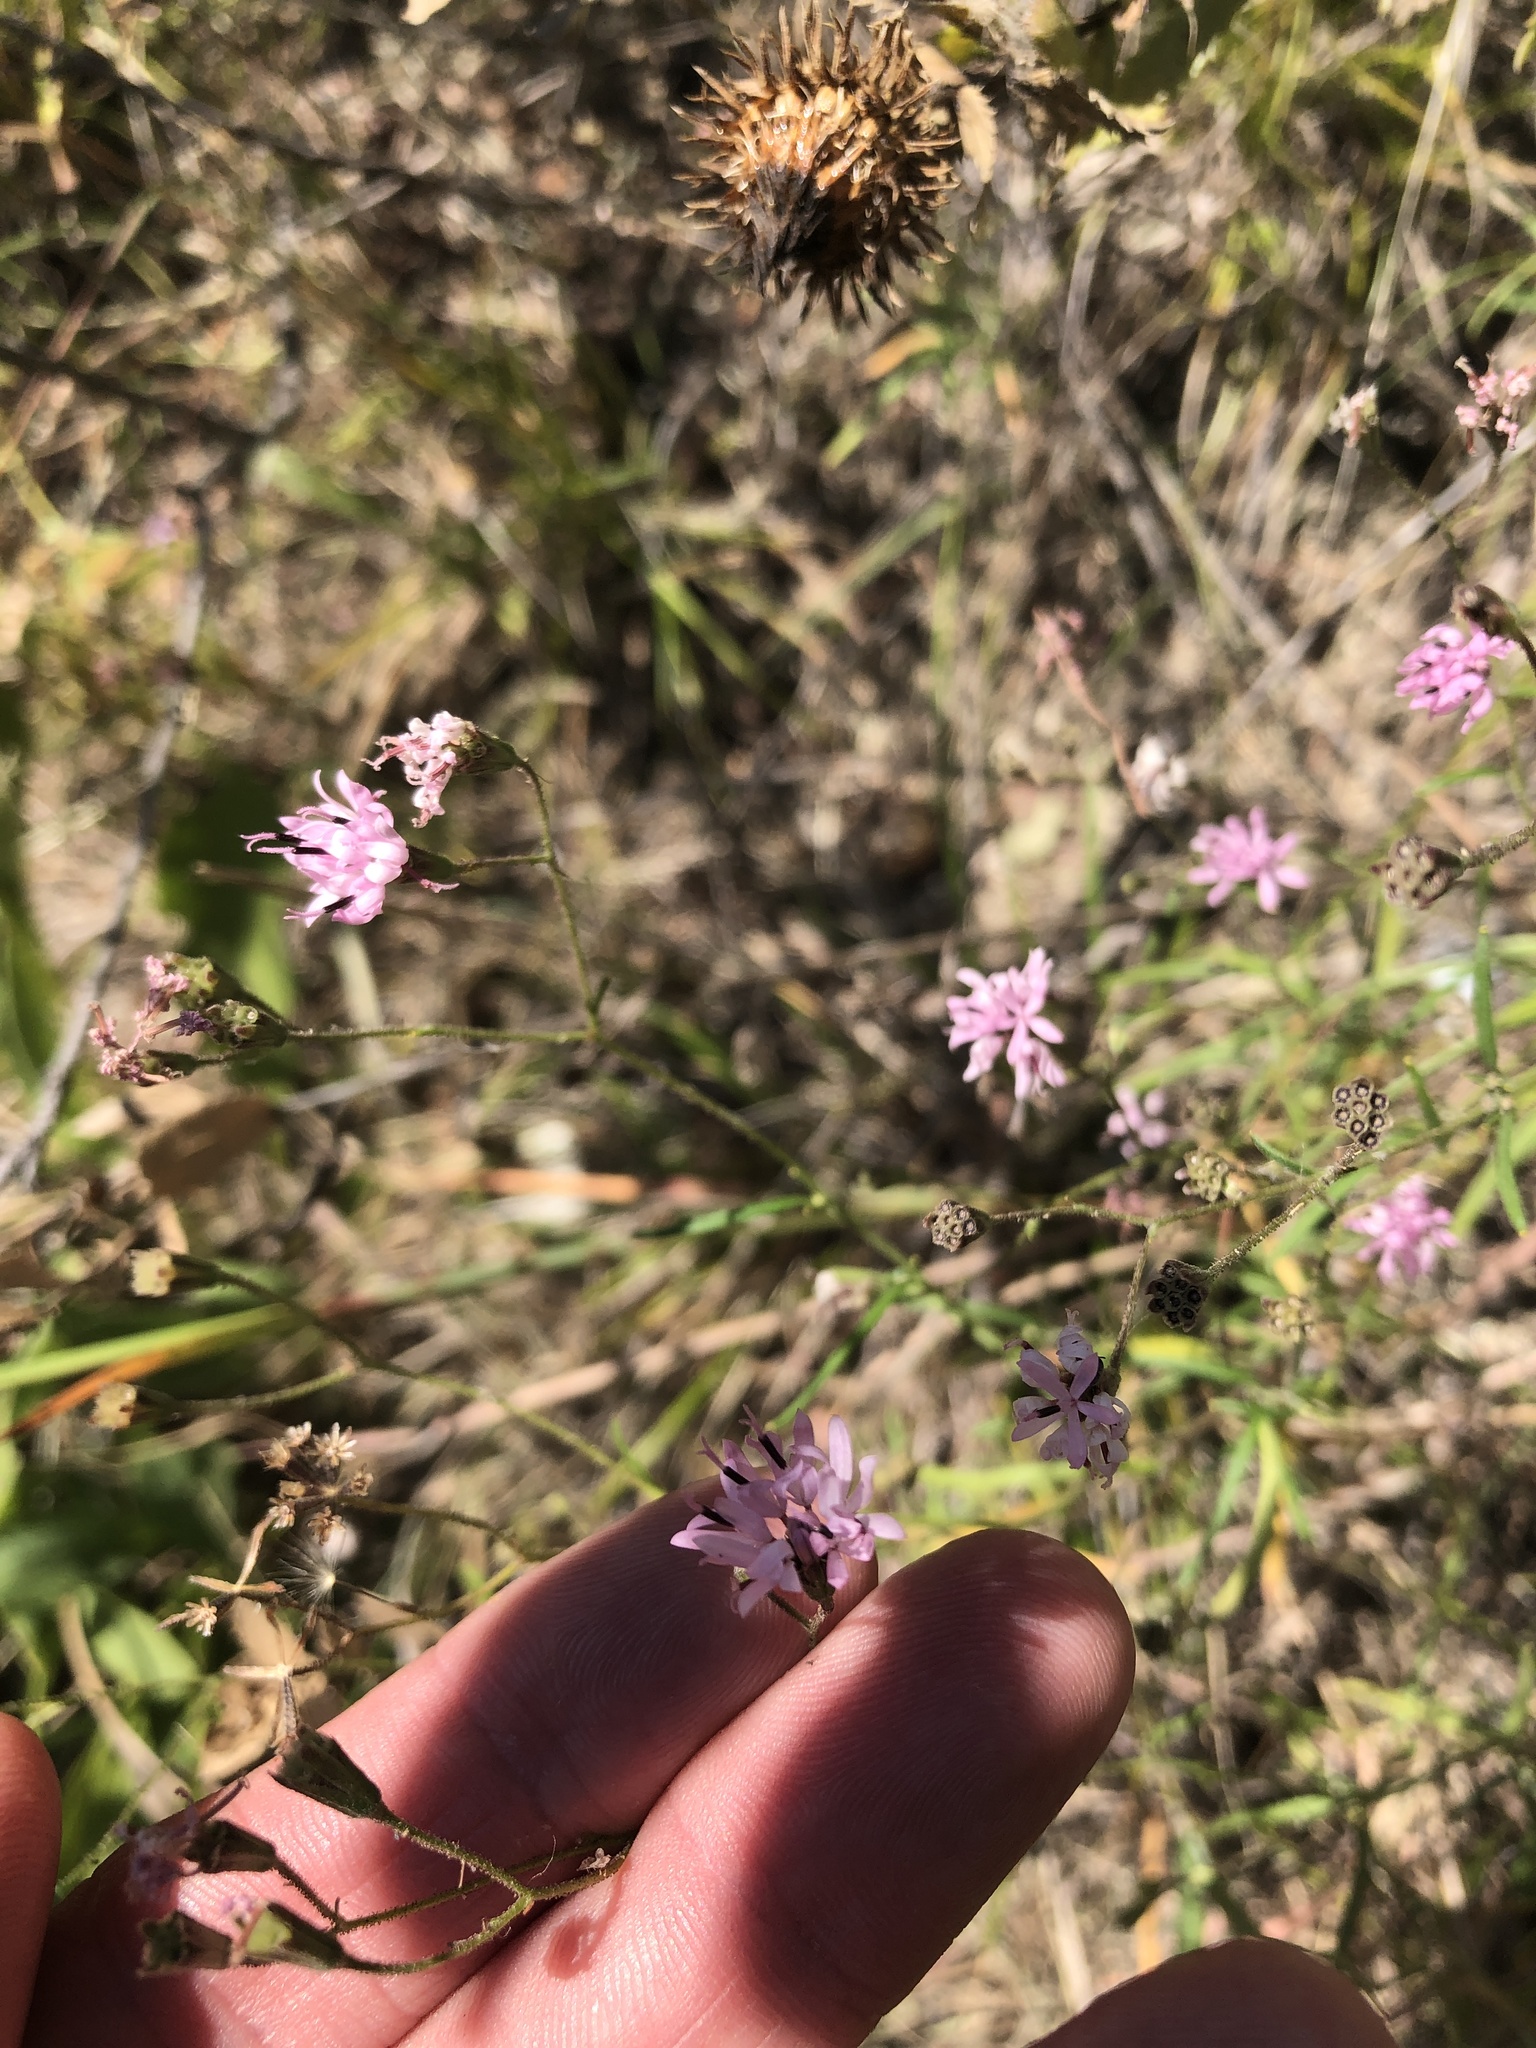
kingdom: Plantae
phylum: Tracheophyta
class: Magnoliopsida
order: Asterales
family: Asteraceae
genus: Palafoxia
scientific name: Palafoxia callosa
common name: Small palafox
